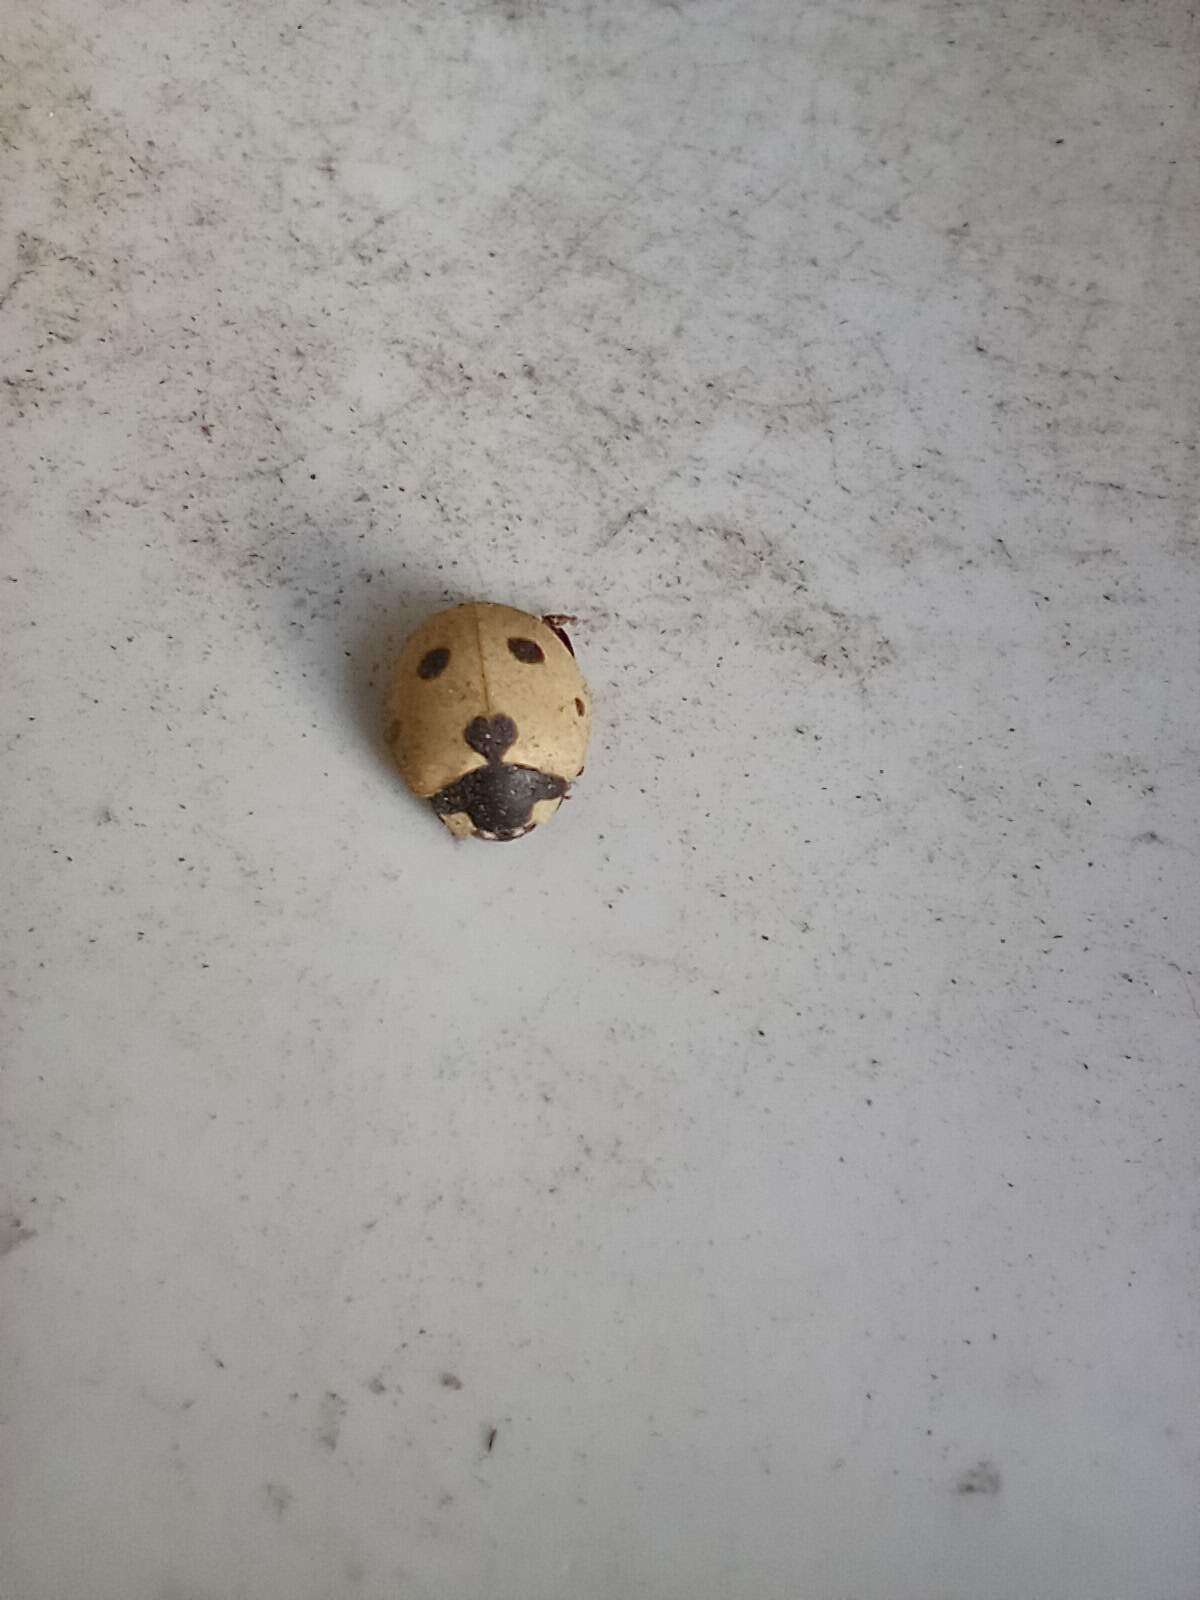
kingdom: Animalia
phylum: Arthropoda
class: Insecta
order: Coleoptera
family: Coccinellidae
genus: Coccinella
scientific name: Coccinella septempunctata
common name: Sevenspotted lady beetle
